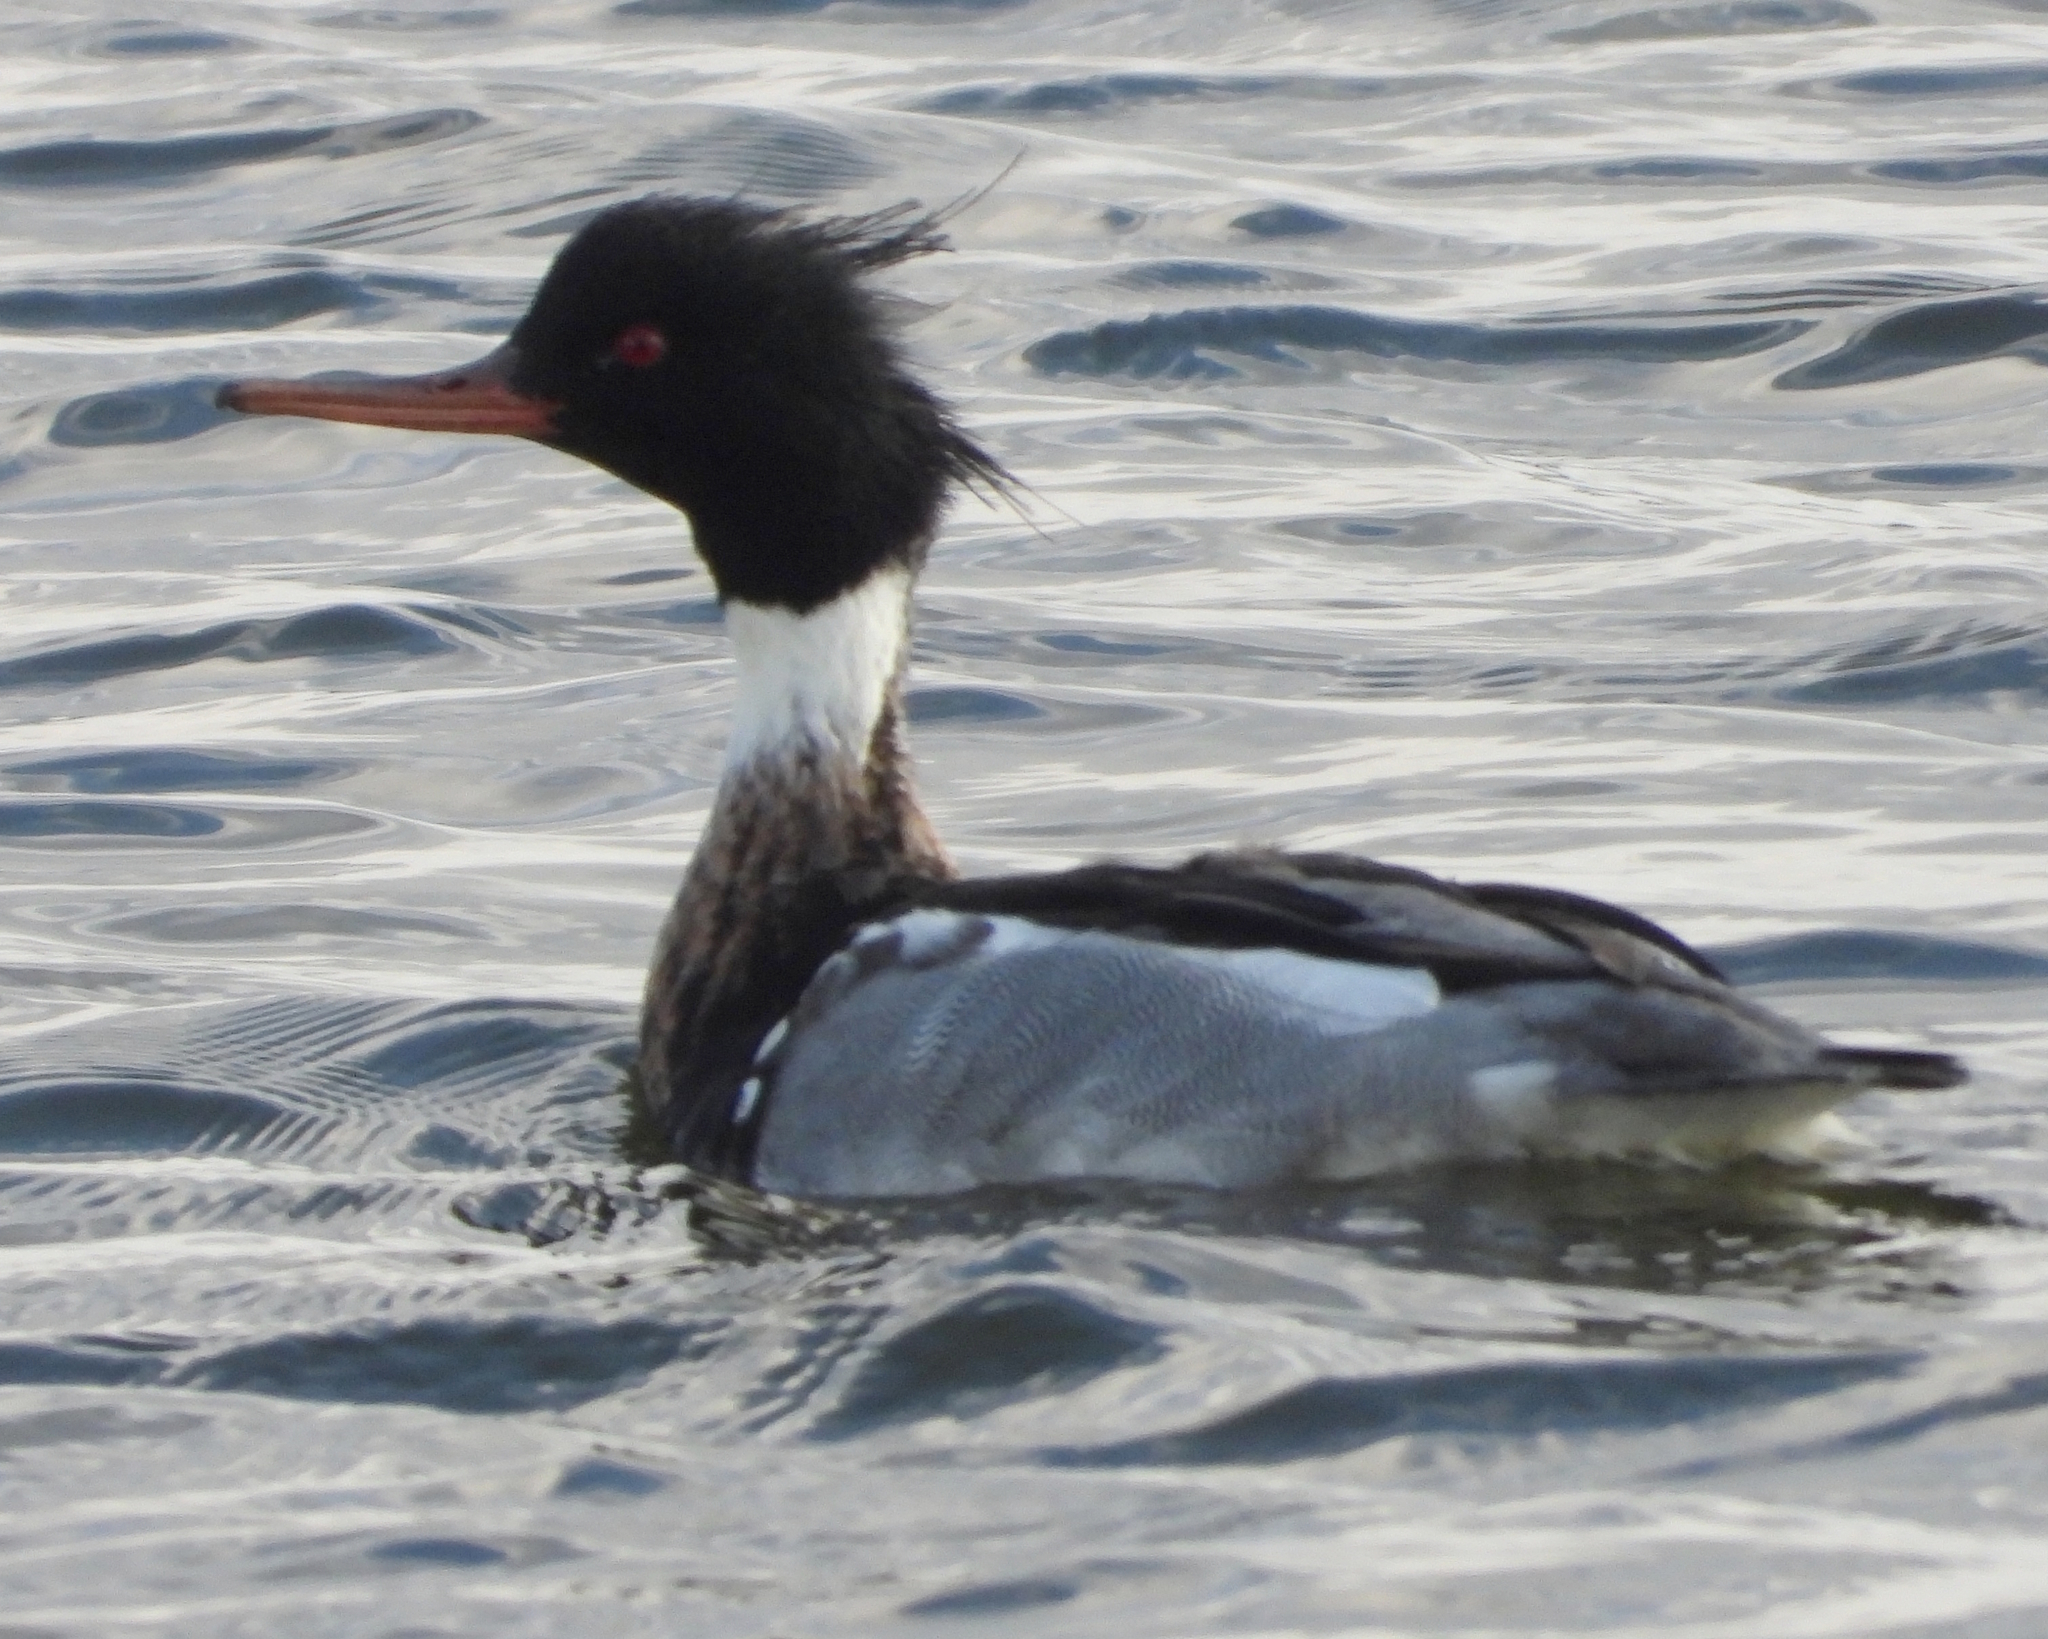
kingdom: Animalia
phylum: Chordata
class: Aves
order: Anseriformes
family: Anatidae
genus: Mergus
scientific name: Mergus serrator
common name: Red-breasted merganser
